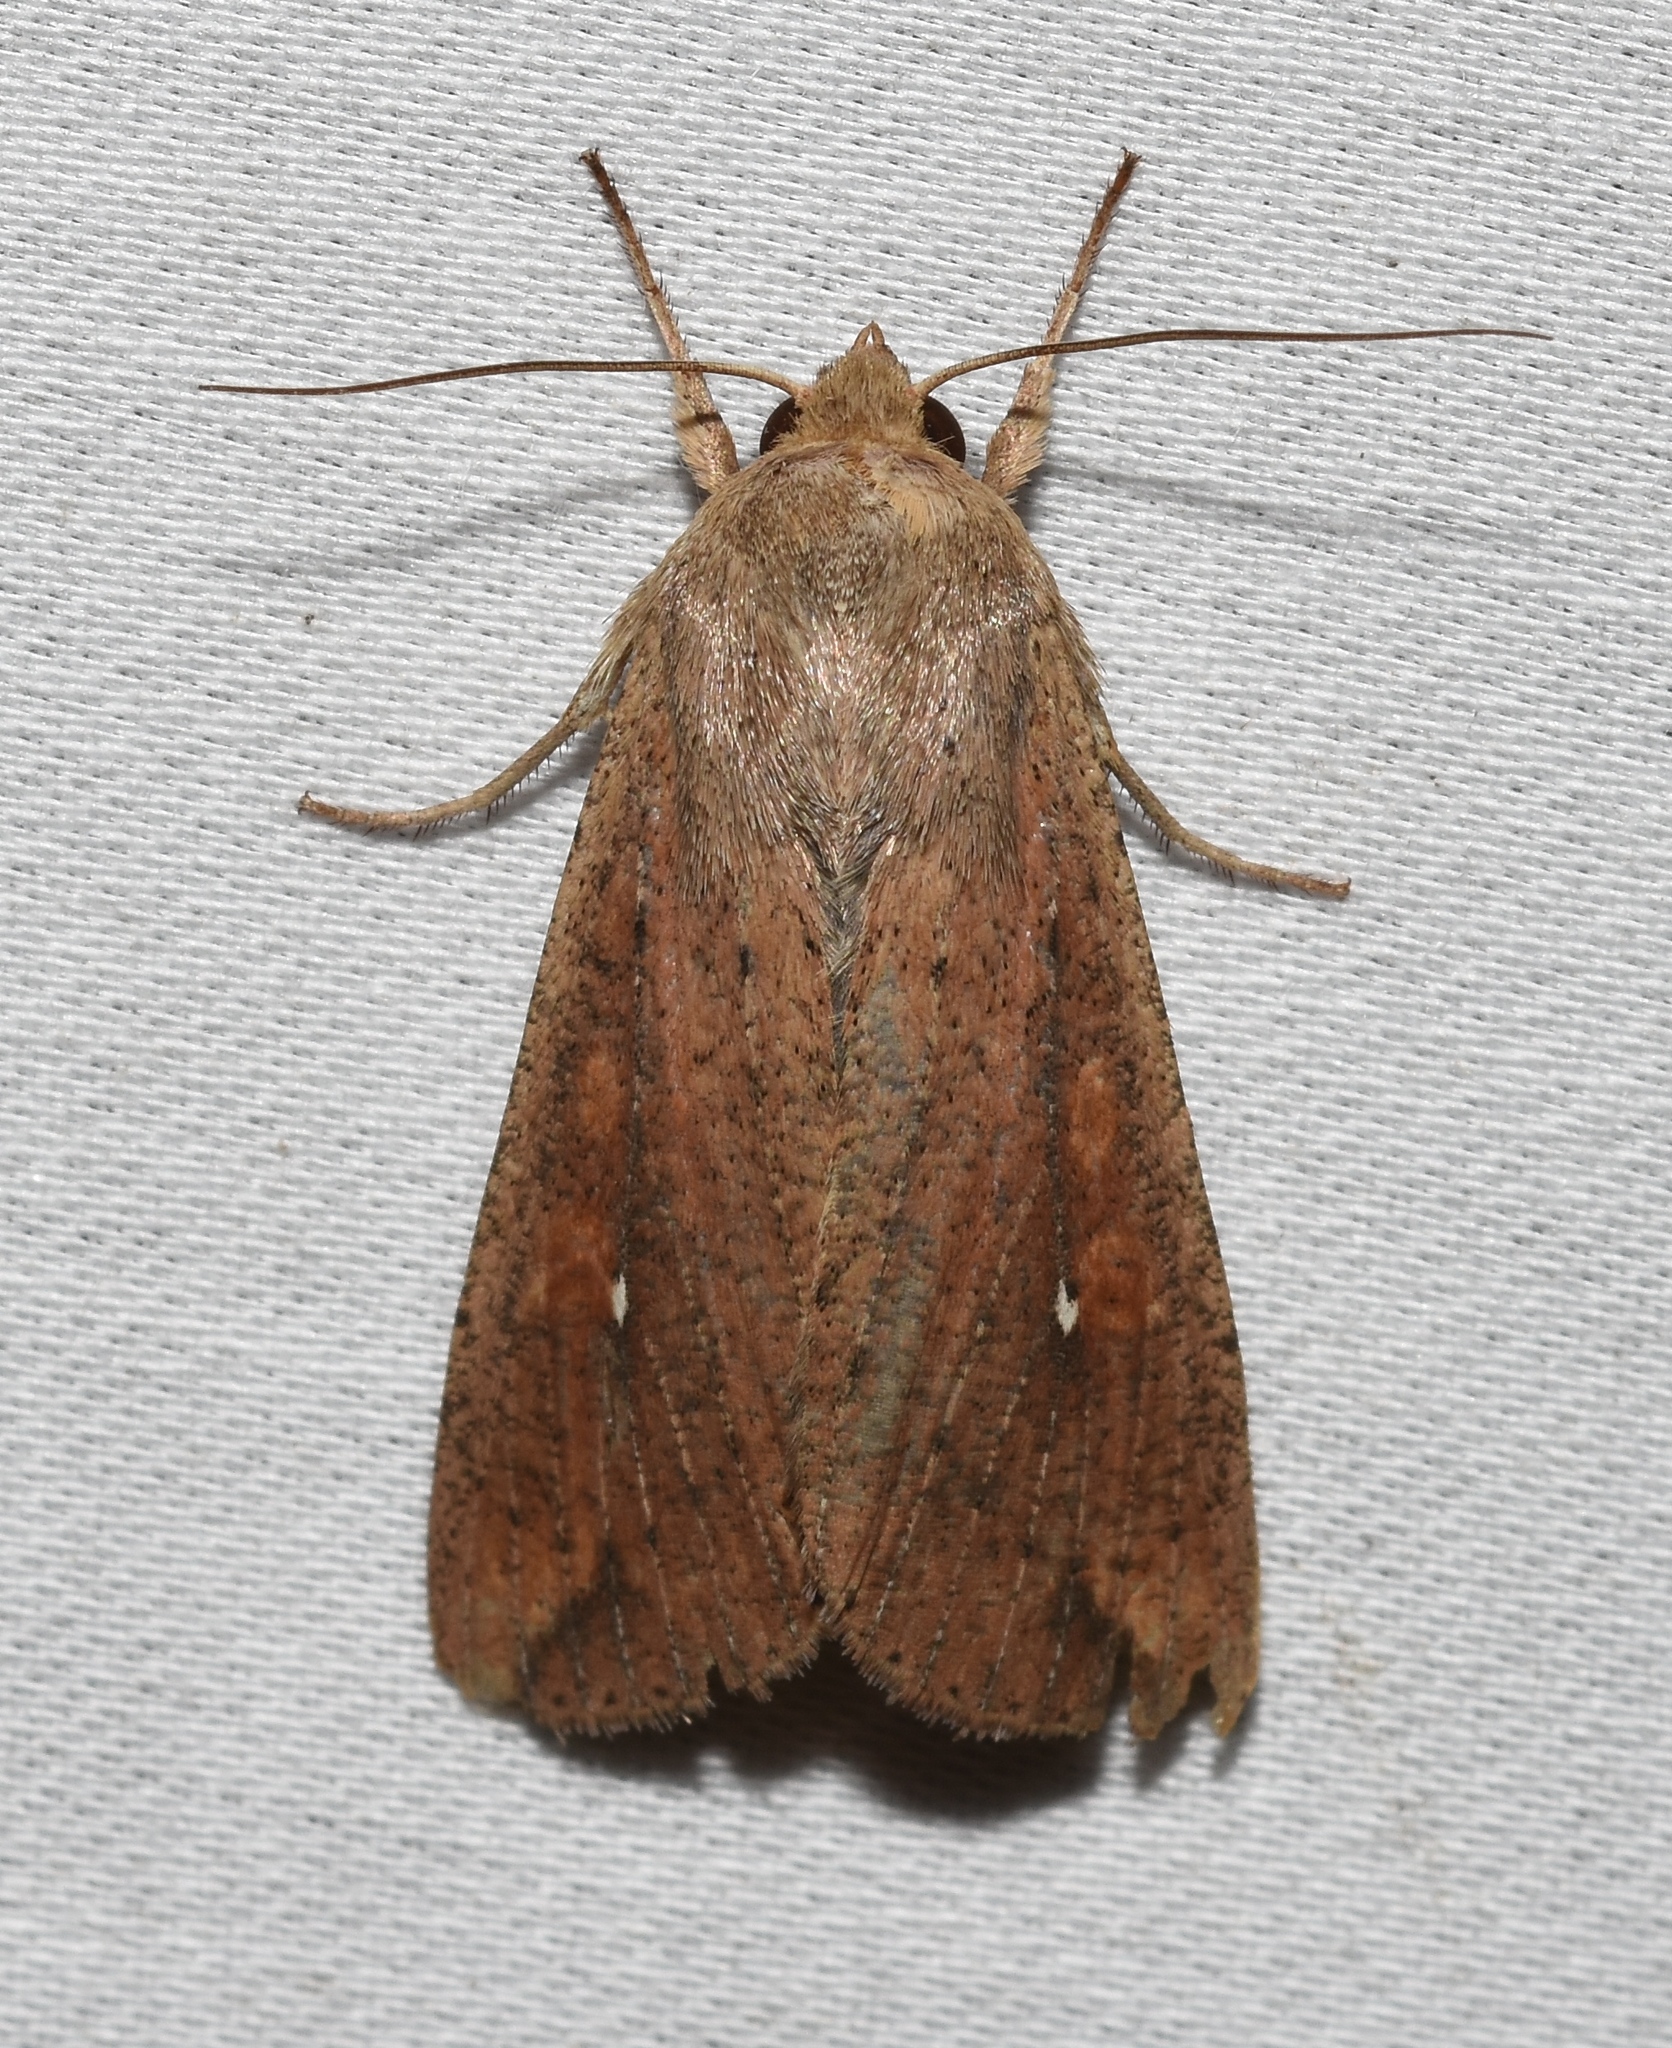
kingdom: Animalia
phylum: Arthropoda
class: Insecta
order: Lepidoptera
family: Noctuidae
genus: Mythimna
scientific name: Mythimna unipuncta
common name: White-speck
